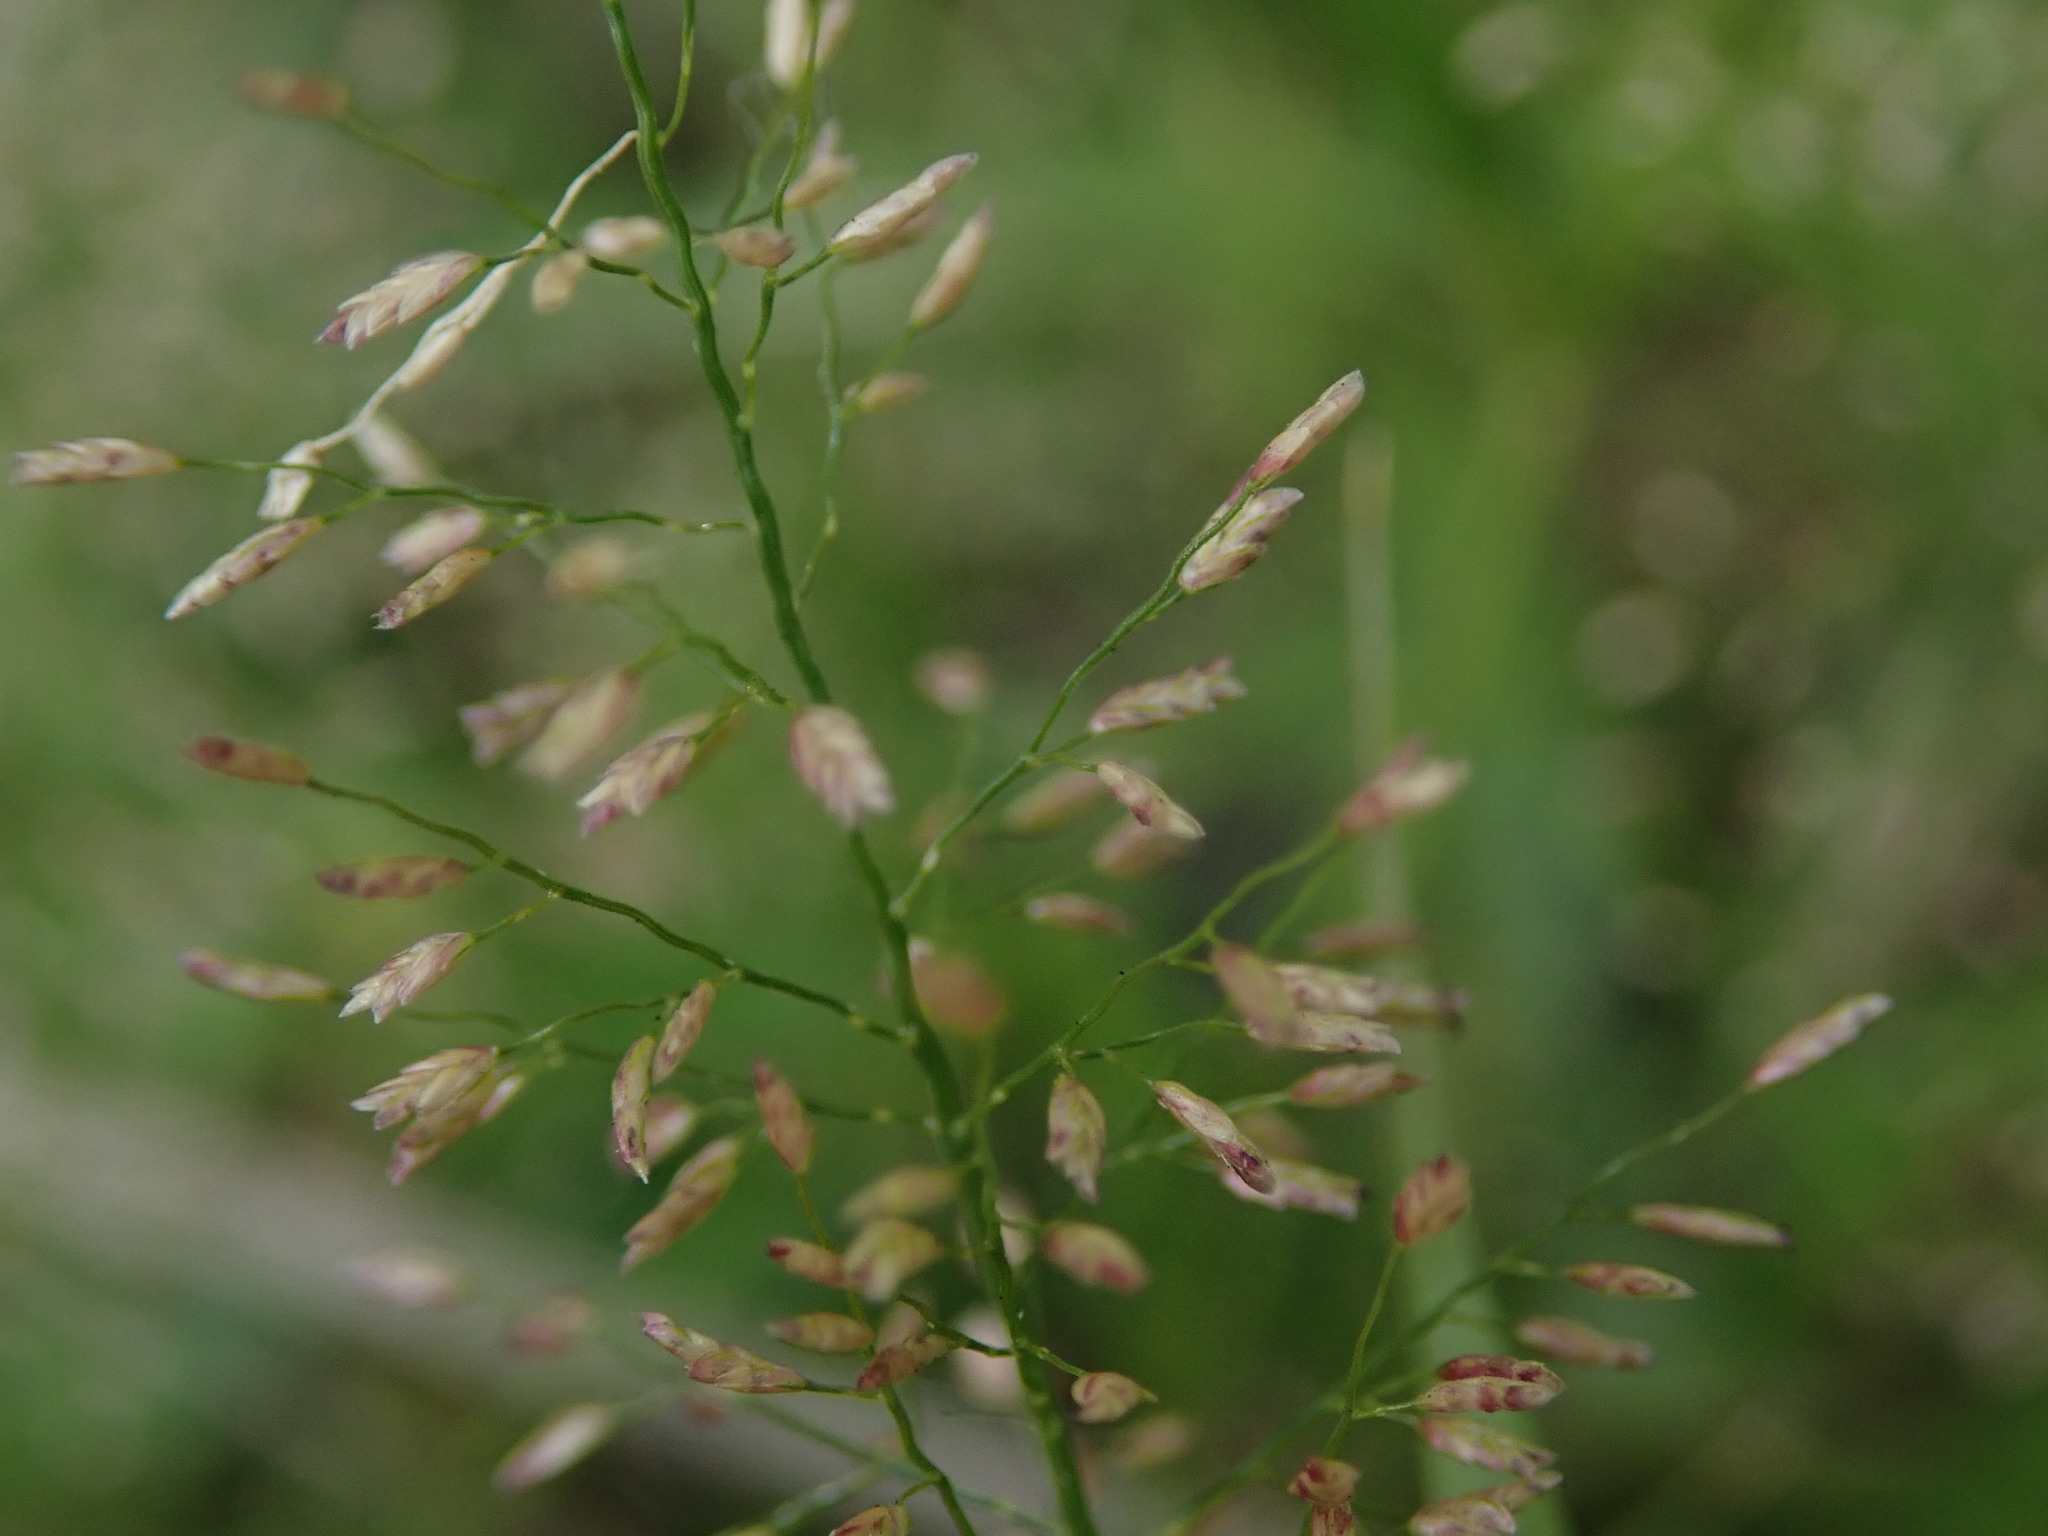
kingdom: Plantae
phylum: Tracheophyta
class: Liliopsida
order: Poales
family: Poaceae
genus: Eragrostis
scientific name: Eragrostis tenella
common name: Japanese lovegrass
